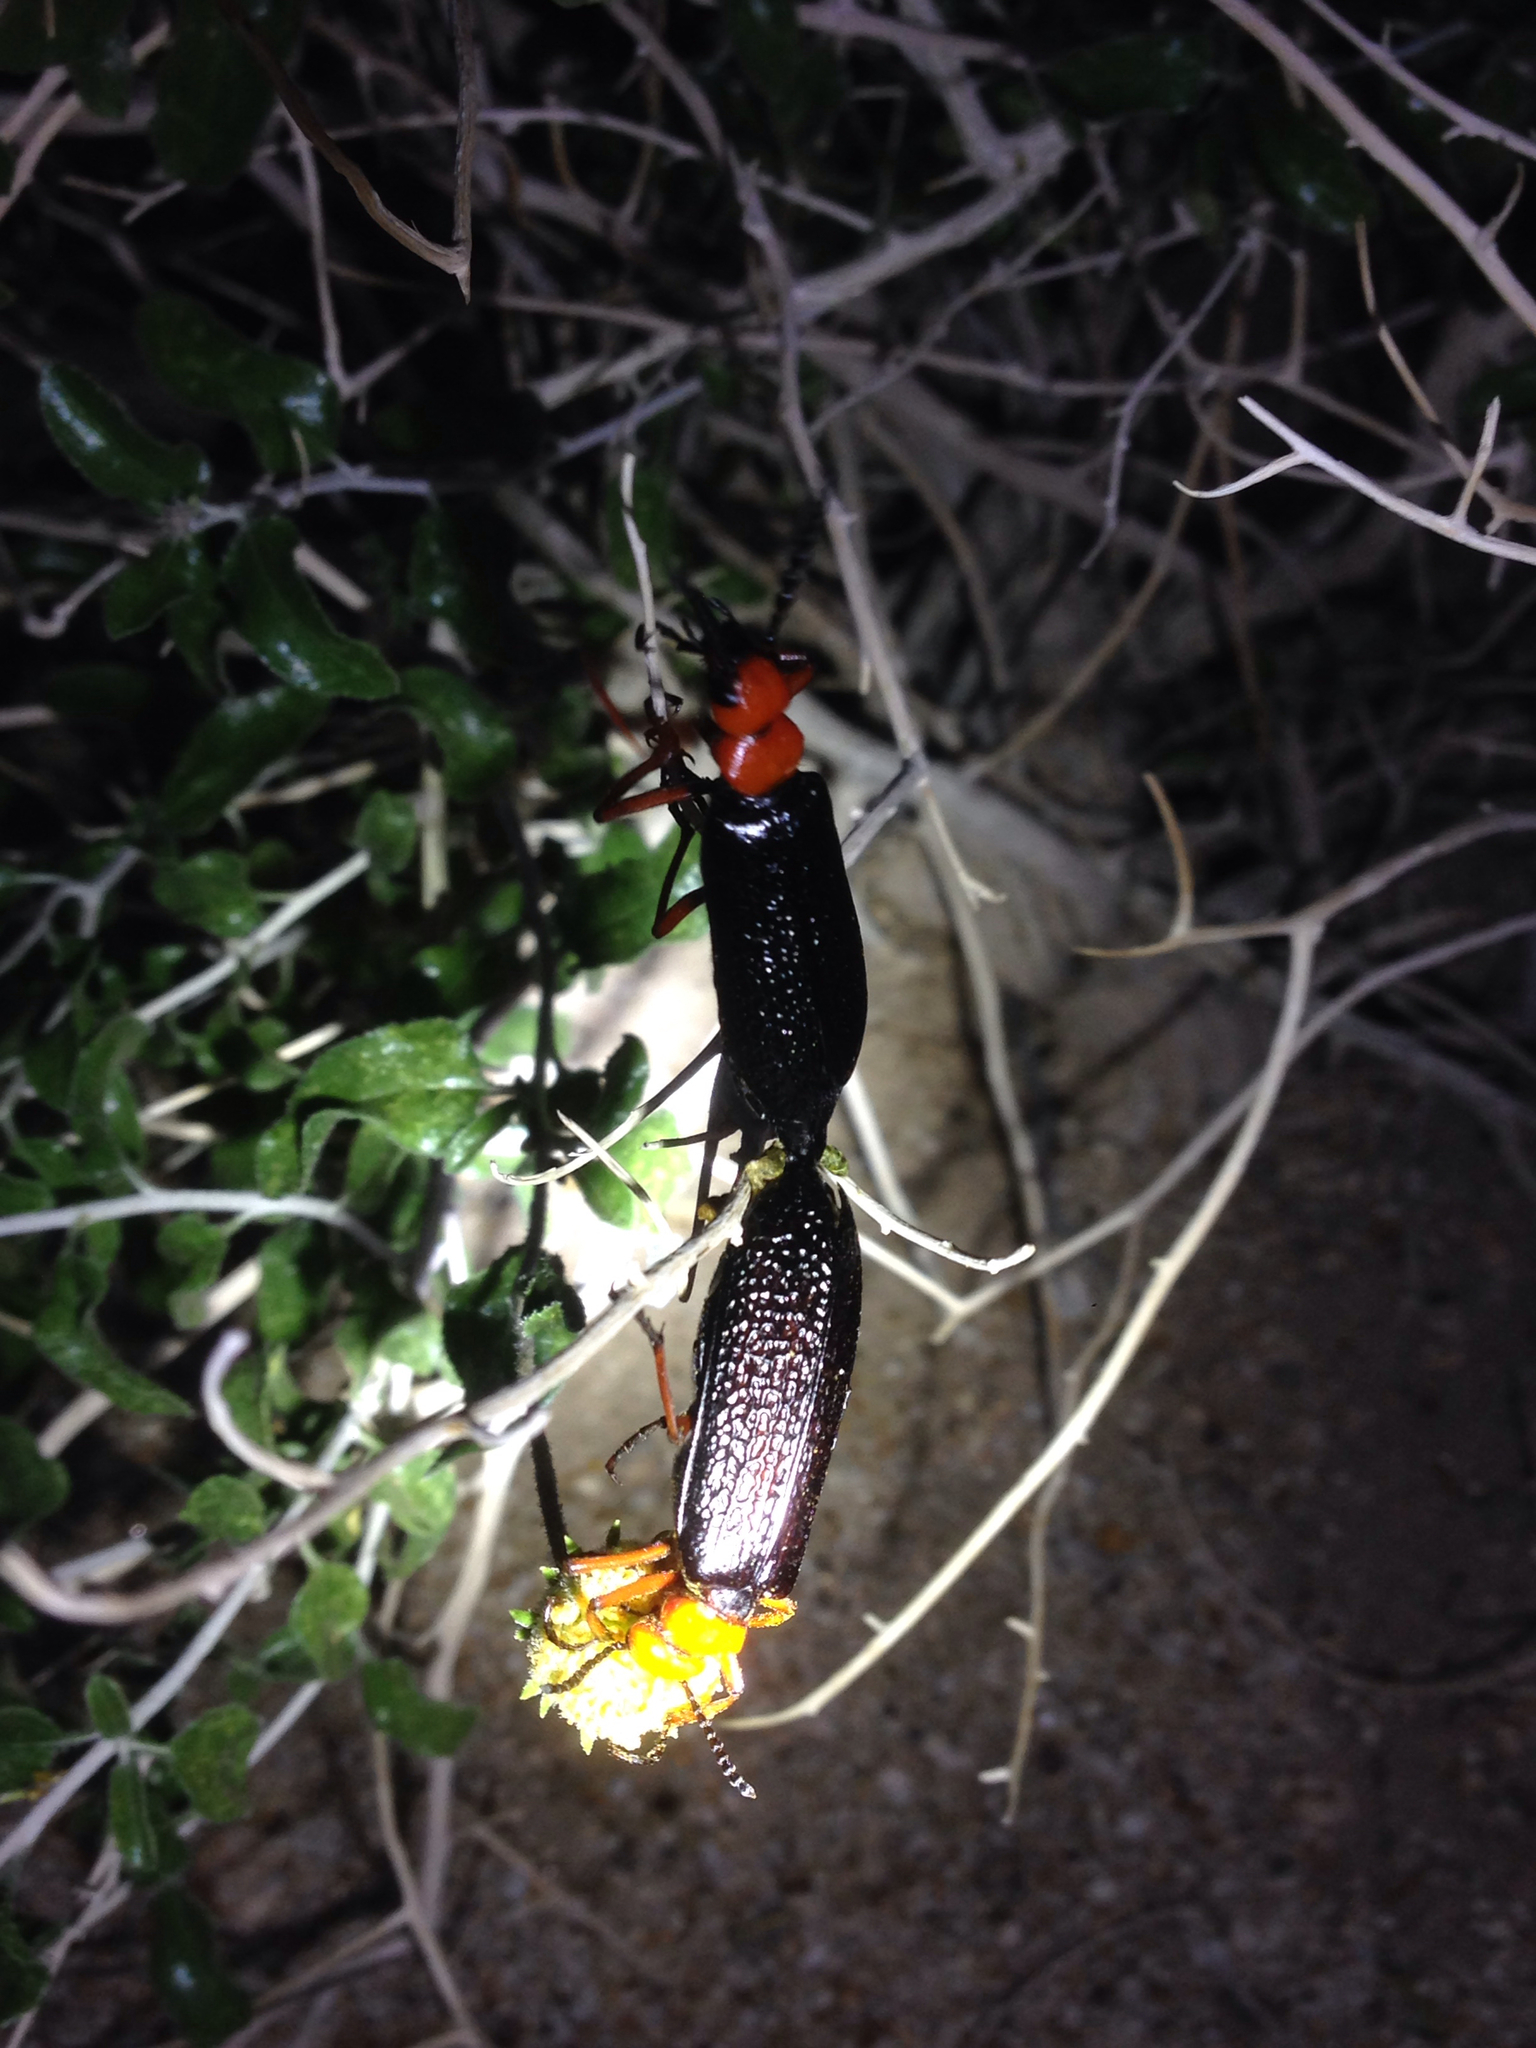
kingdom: Animalia
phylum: Arthropoda
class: Insecta
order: Coleoptera
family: Meloidae
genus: Lytta
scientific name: Lytta magister
